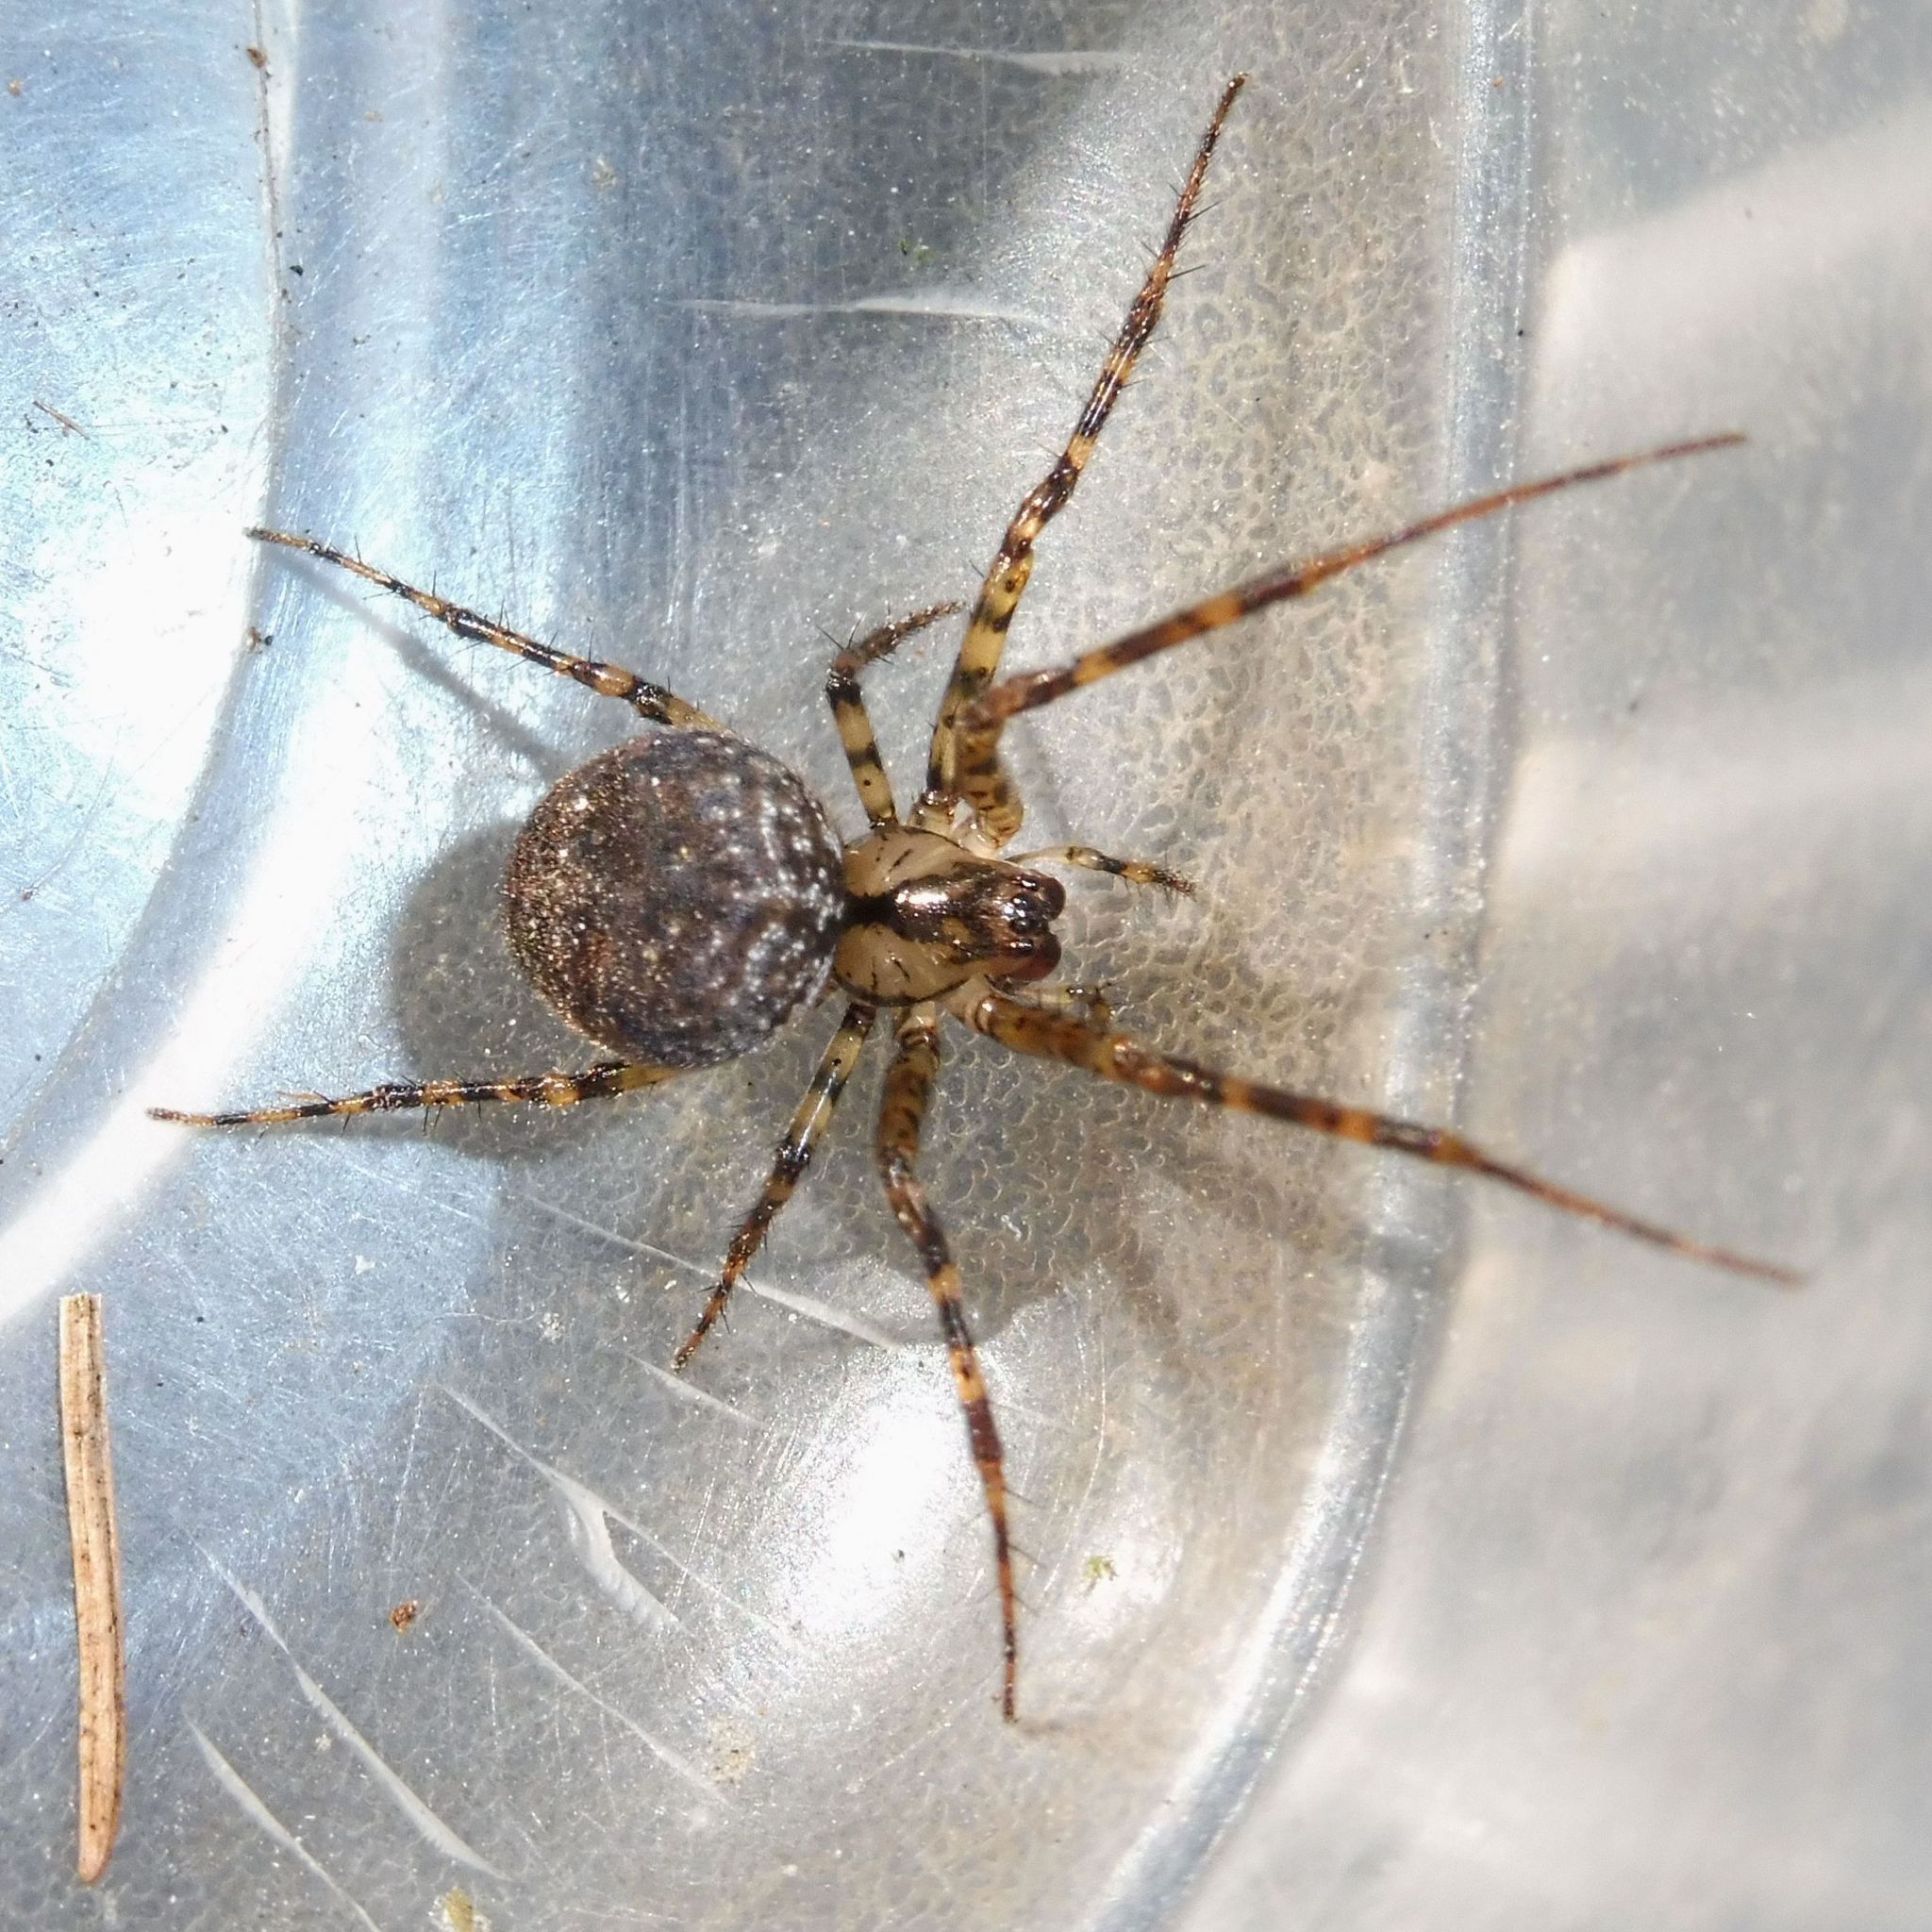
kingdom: Animalia
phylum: Arthropoda
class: Arachnida
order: Araneae
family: Tetragnathidae
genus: Metellina
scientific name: Metellina merianae
